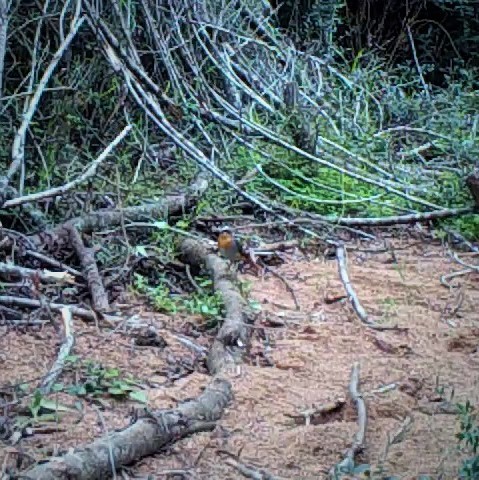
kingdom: Animalia
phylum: Chordata
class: Aves
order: Passeriformes
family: Muscicapidae
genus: Cossypha
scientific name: Cossypha caffra
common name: Cape robin-chat
